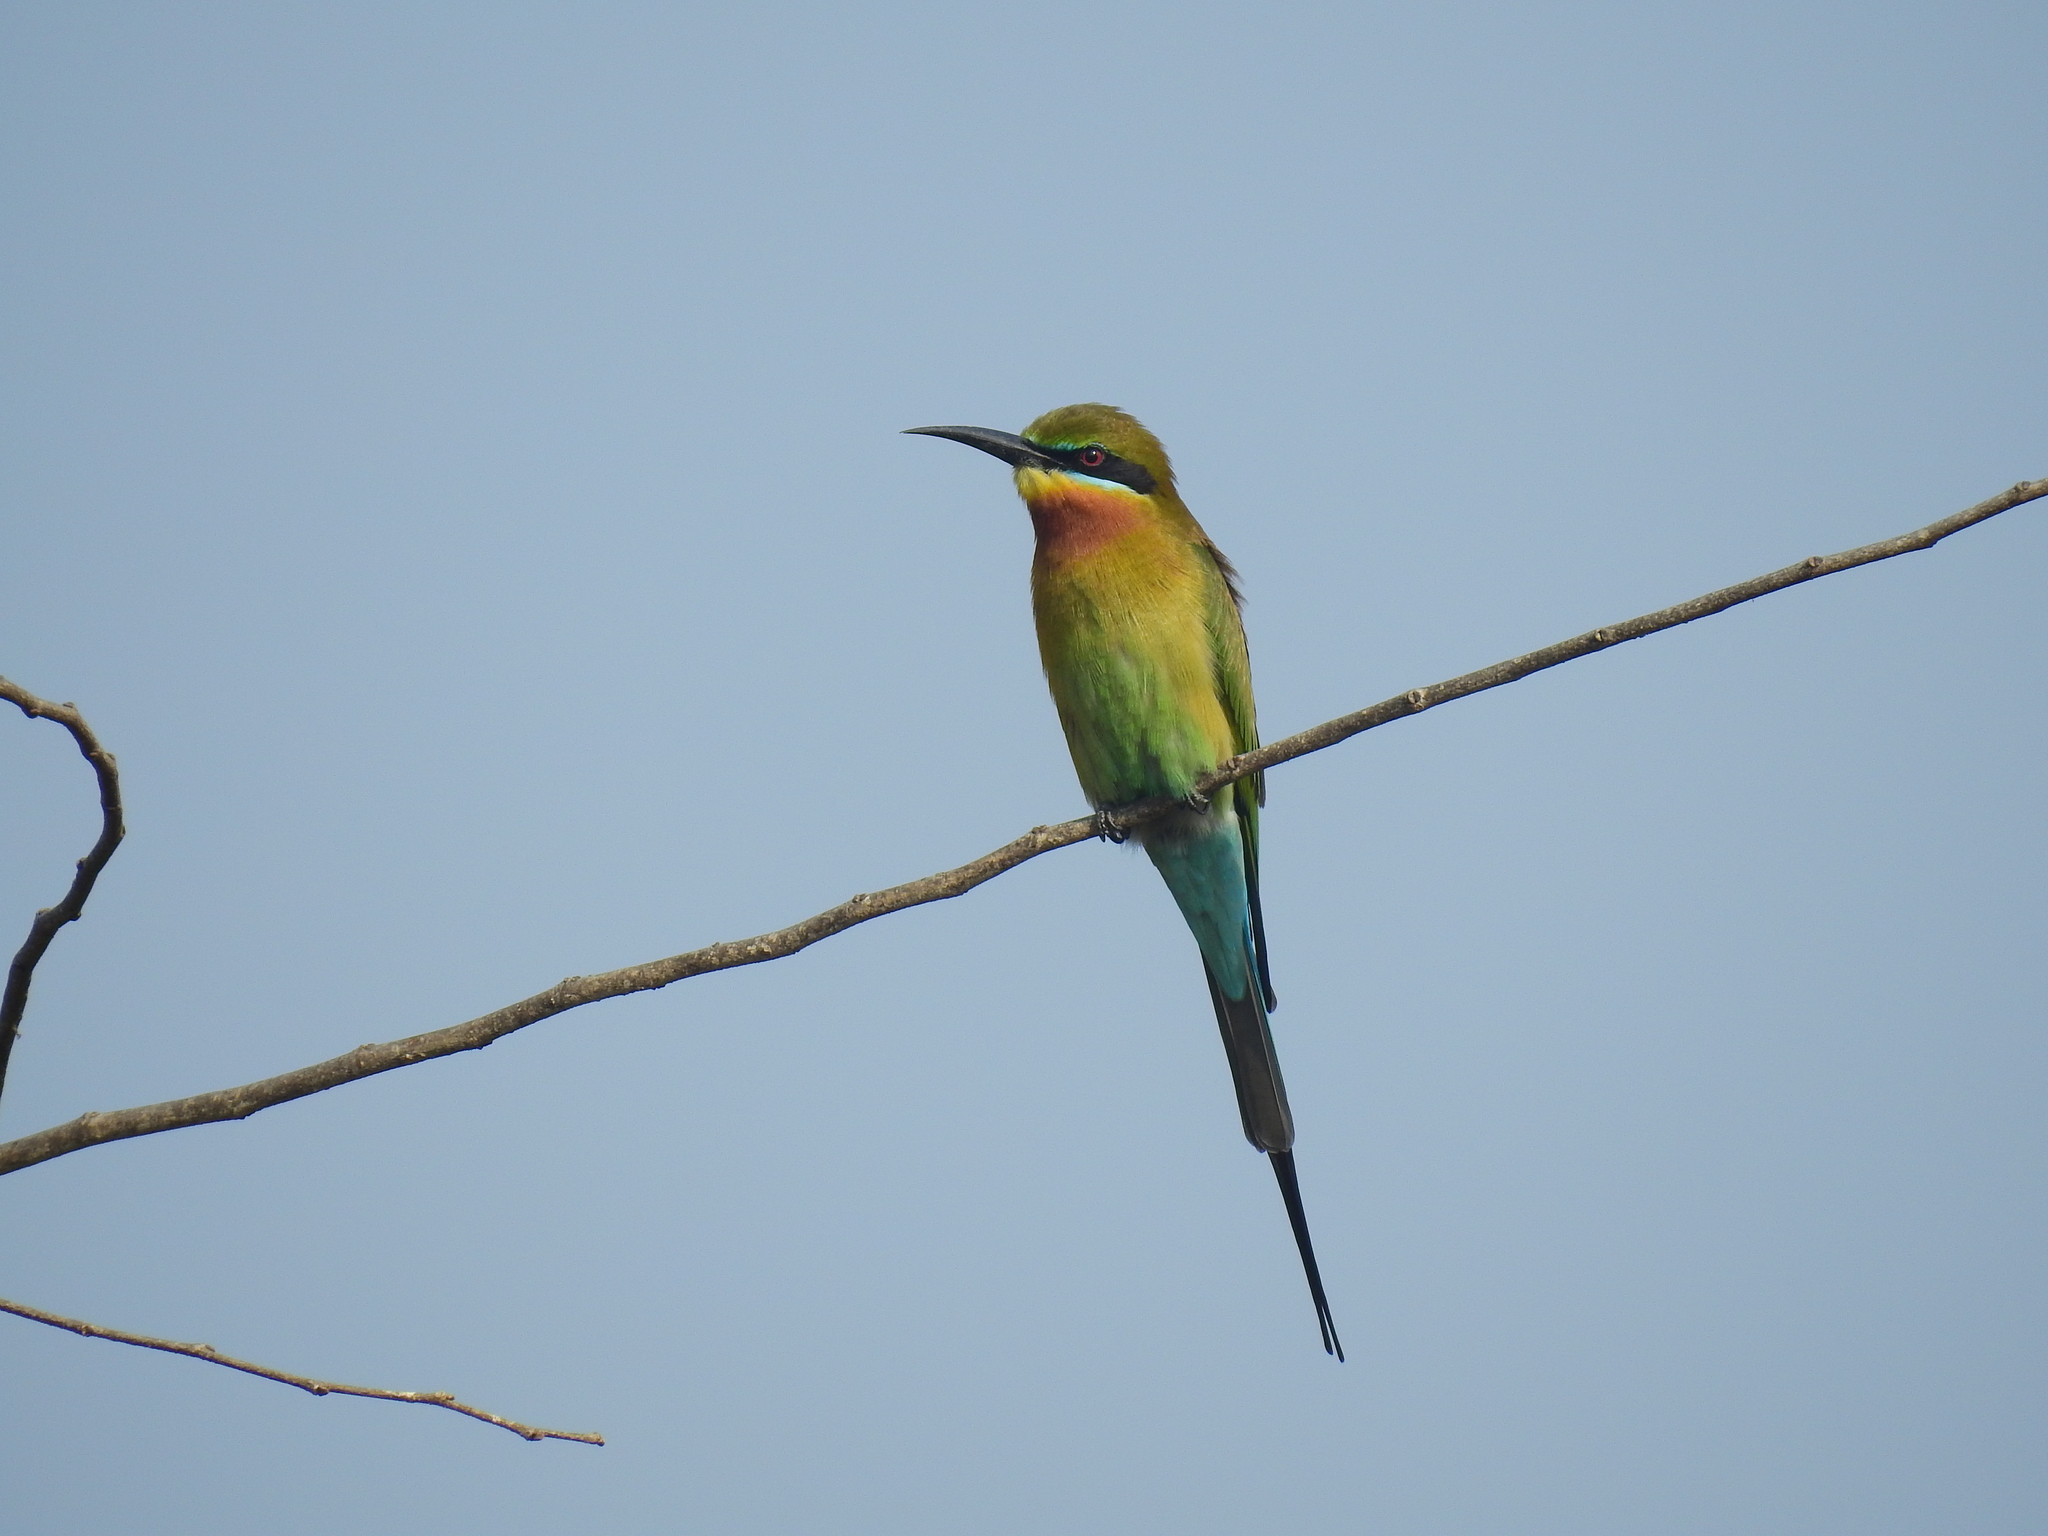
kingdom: Animalia
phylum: Chordata
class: Aves
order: Coraciiformes
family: Meropidae
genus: Merops
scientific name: Merops philippinus
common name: Blue-tailed bee-eater
